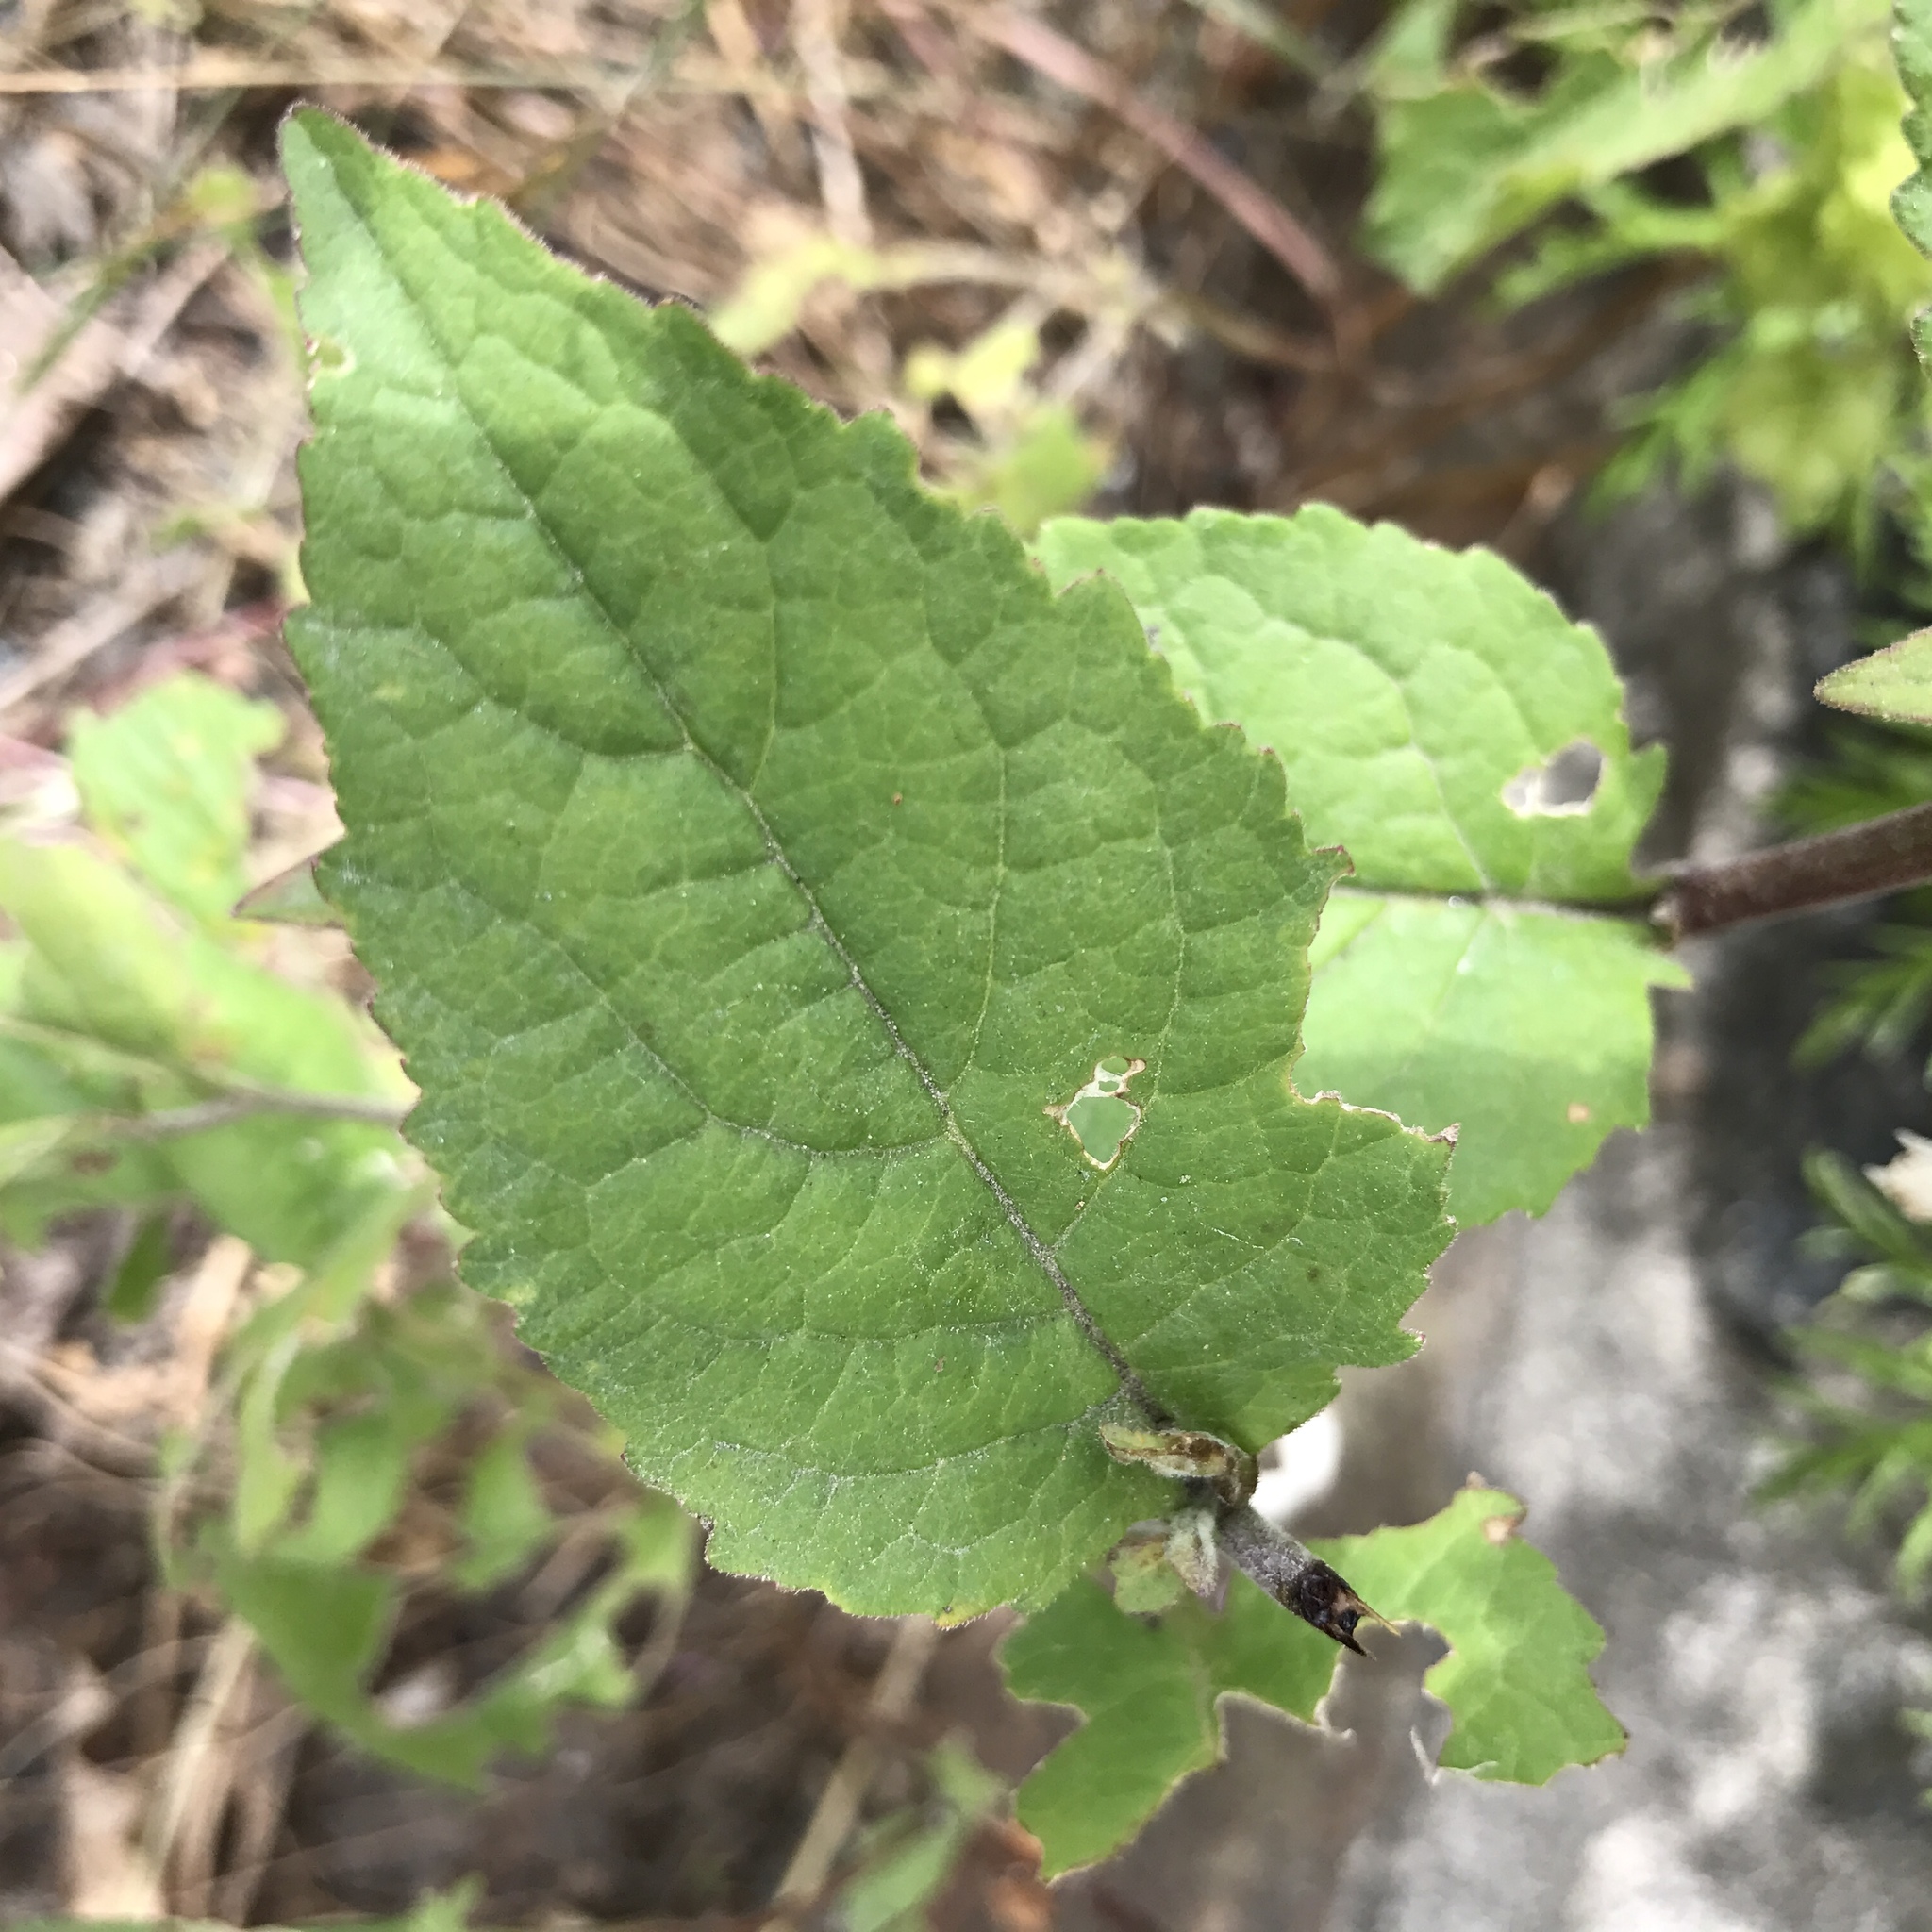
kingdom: Plantae
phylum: Tracheophyta
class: Magnoliopsida
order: Asterales
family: Campanulaceae
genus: Campanula
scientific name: Campanula rapunculoides
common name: Creeping bellflower
